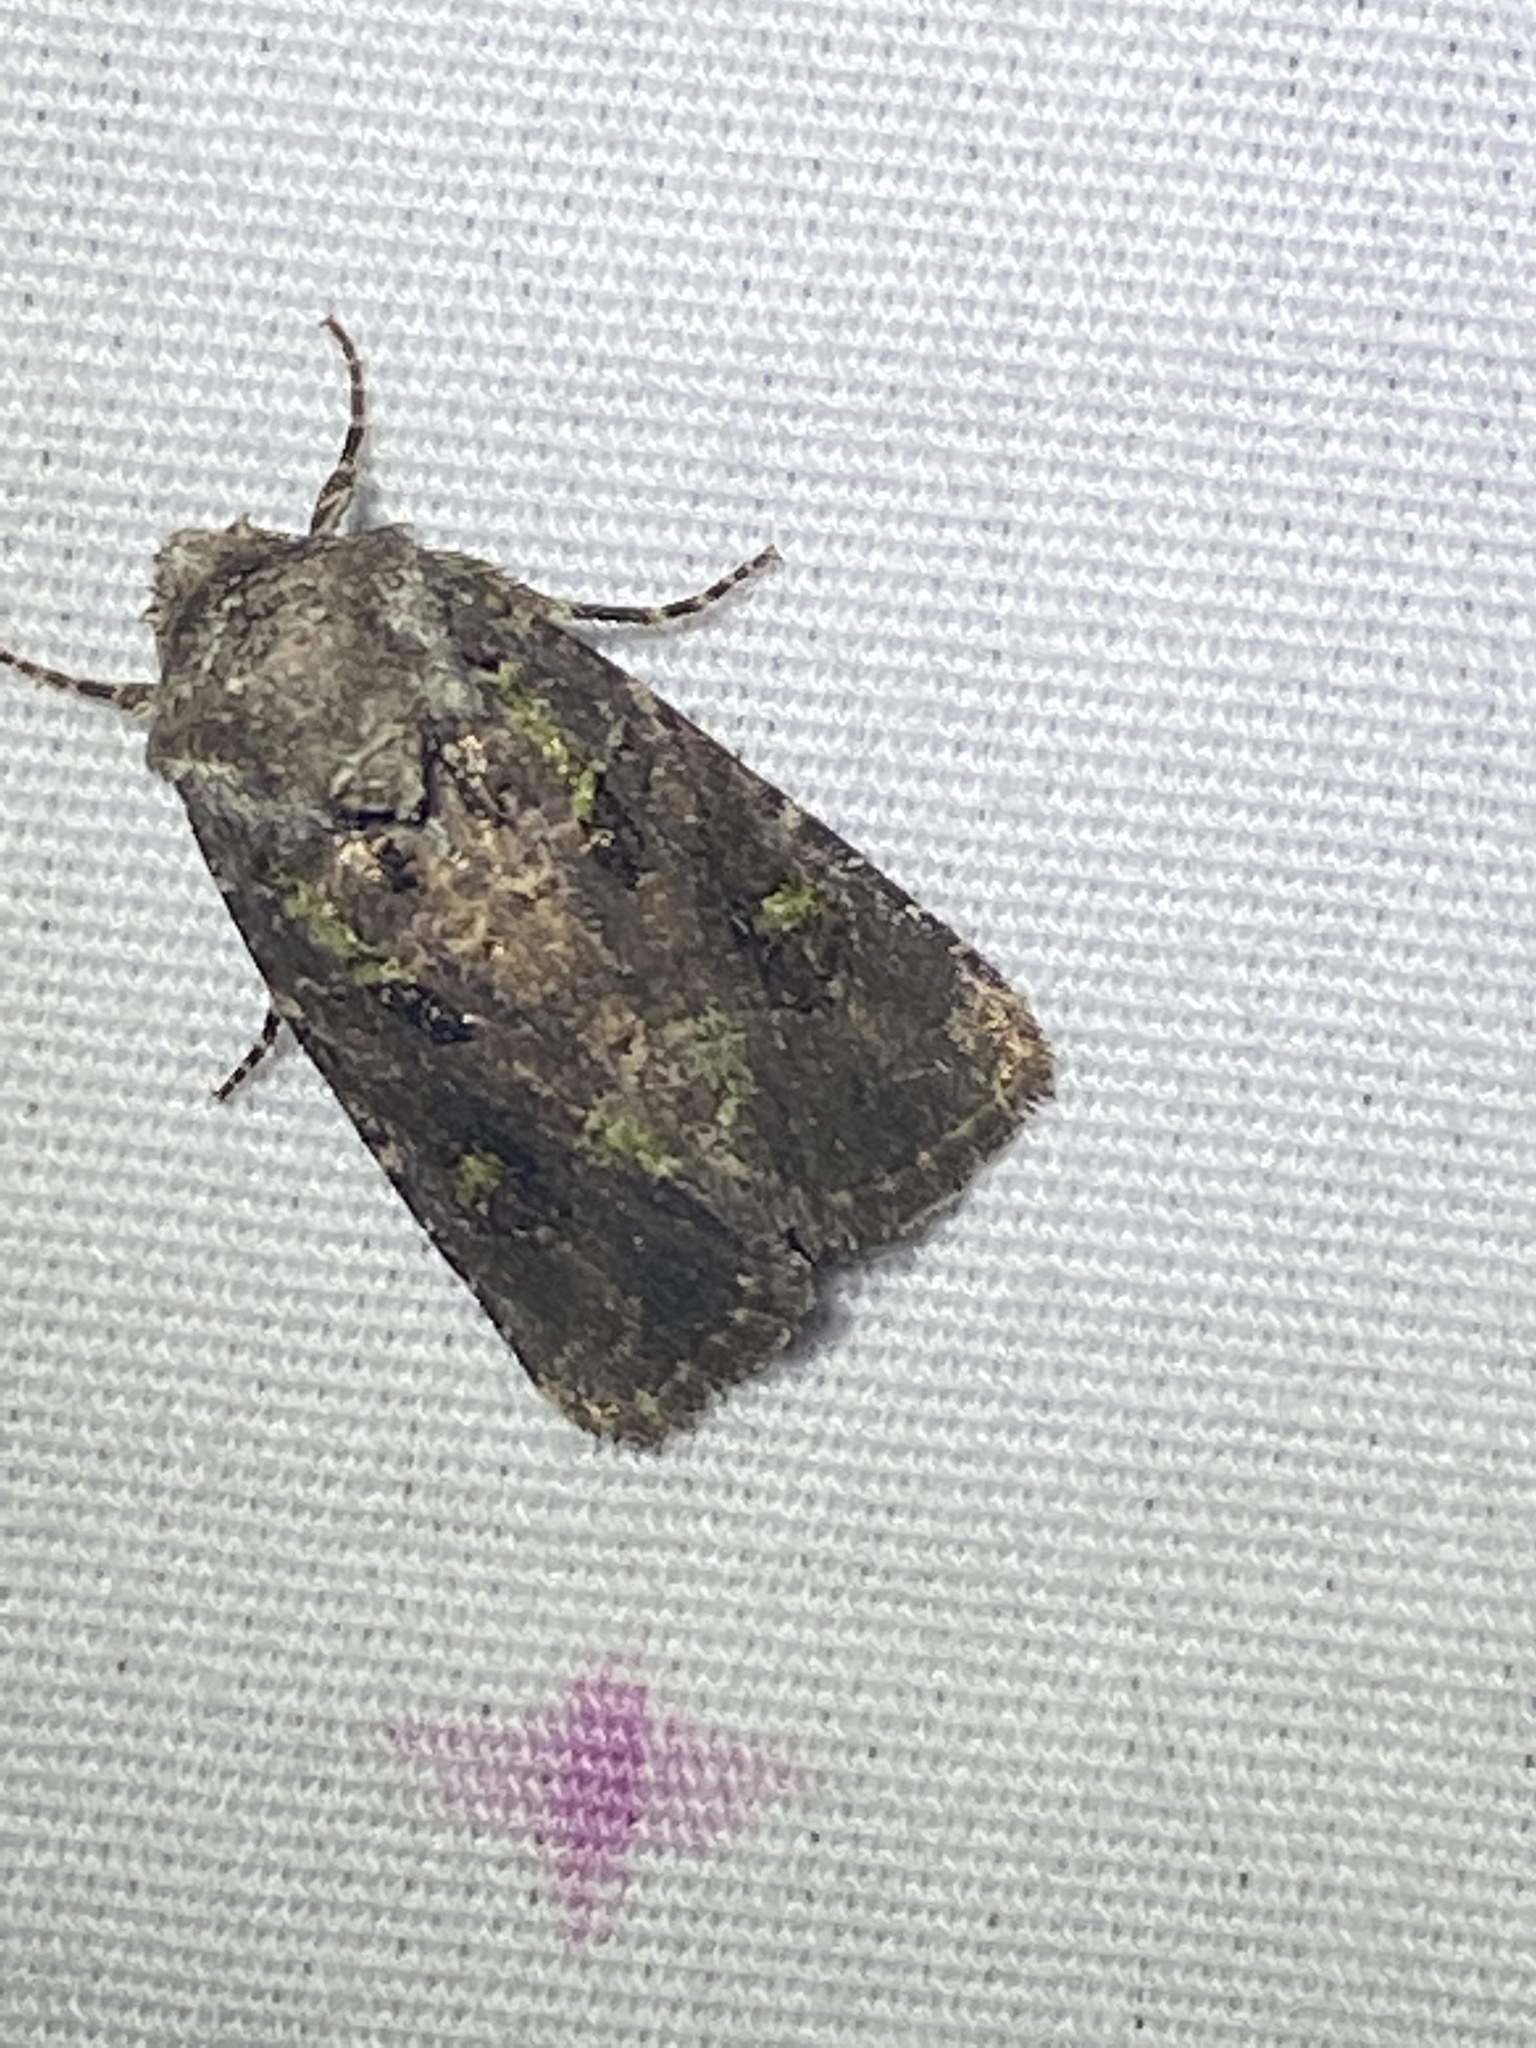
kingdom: Animalia
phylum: Arthropoda
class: Insecta
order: Lepidoptera
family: Noctuidae
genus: Lacinipolia
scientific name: Lacinipolia renigera
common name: Kidney-spotted minor
